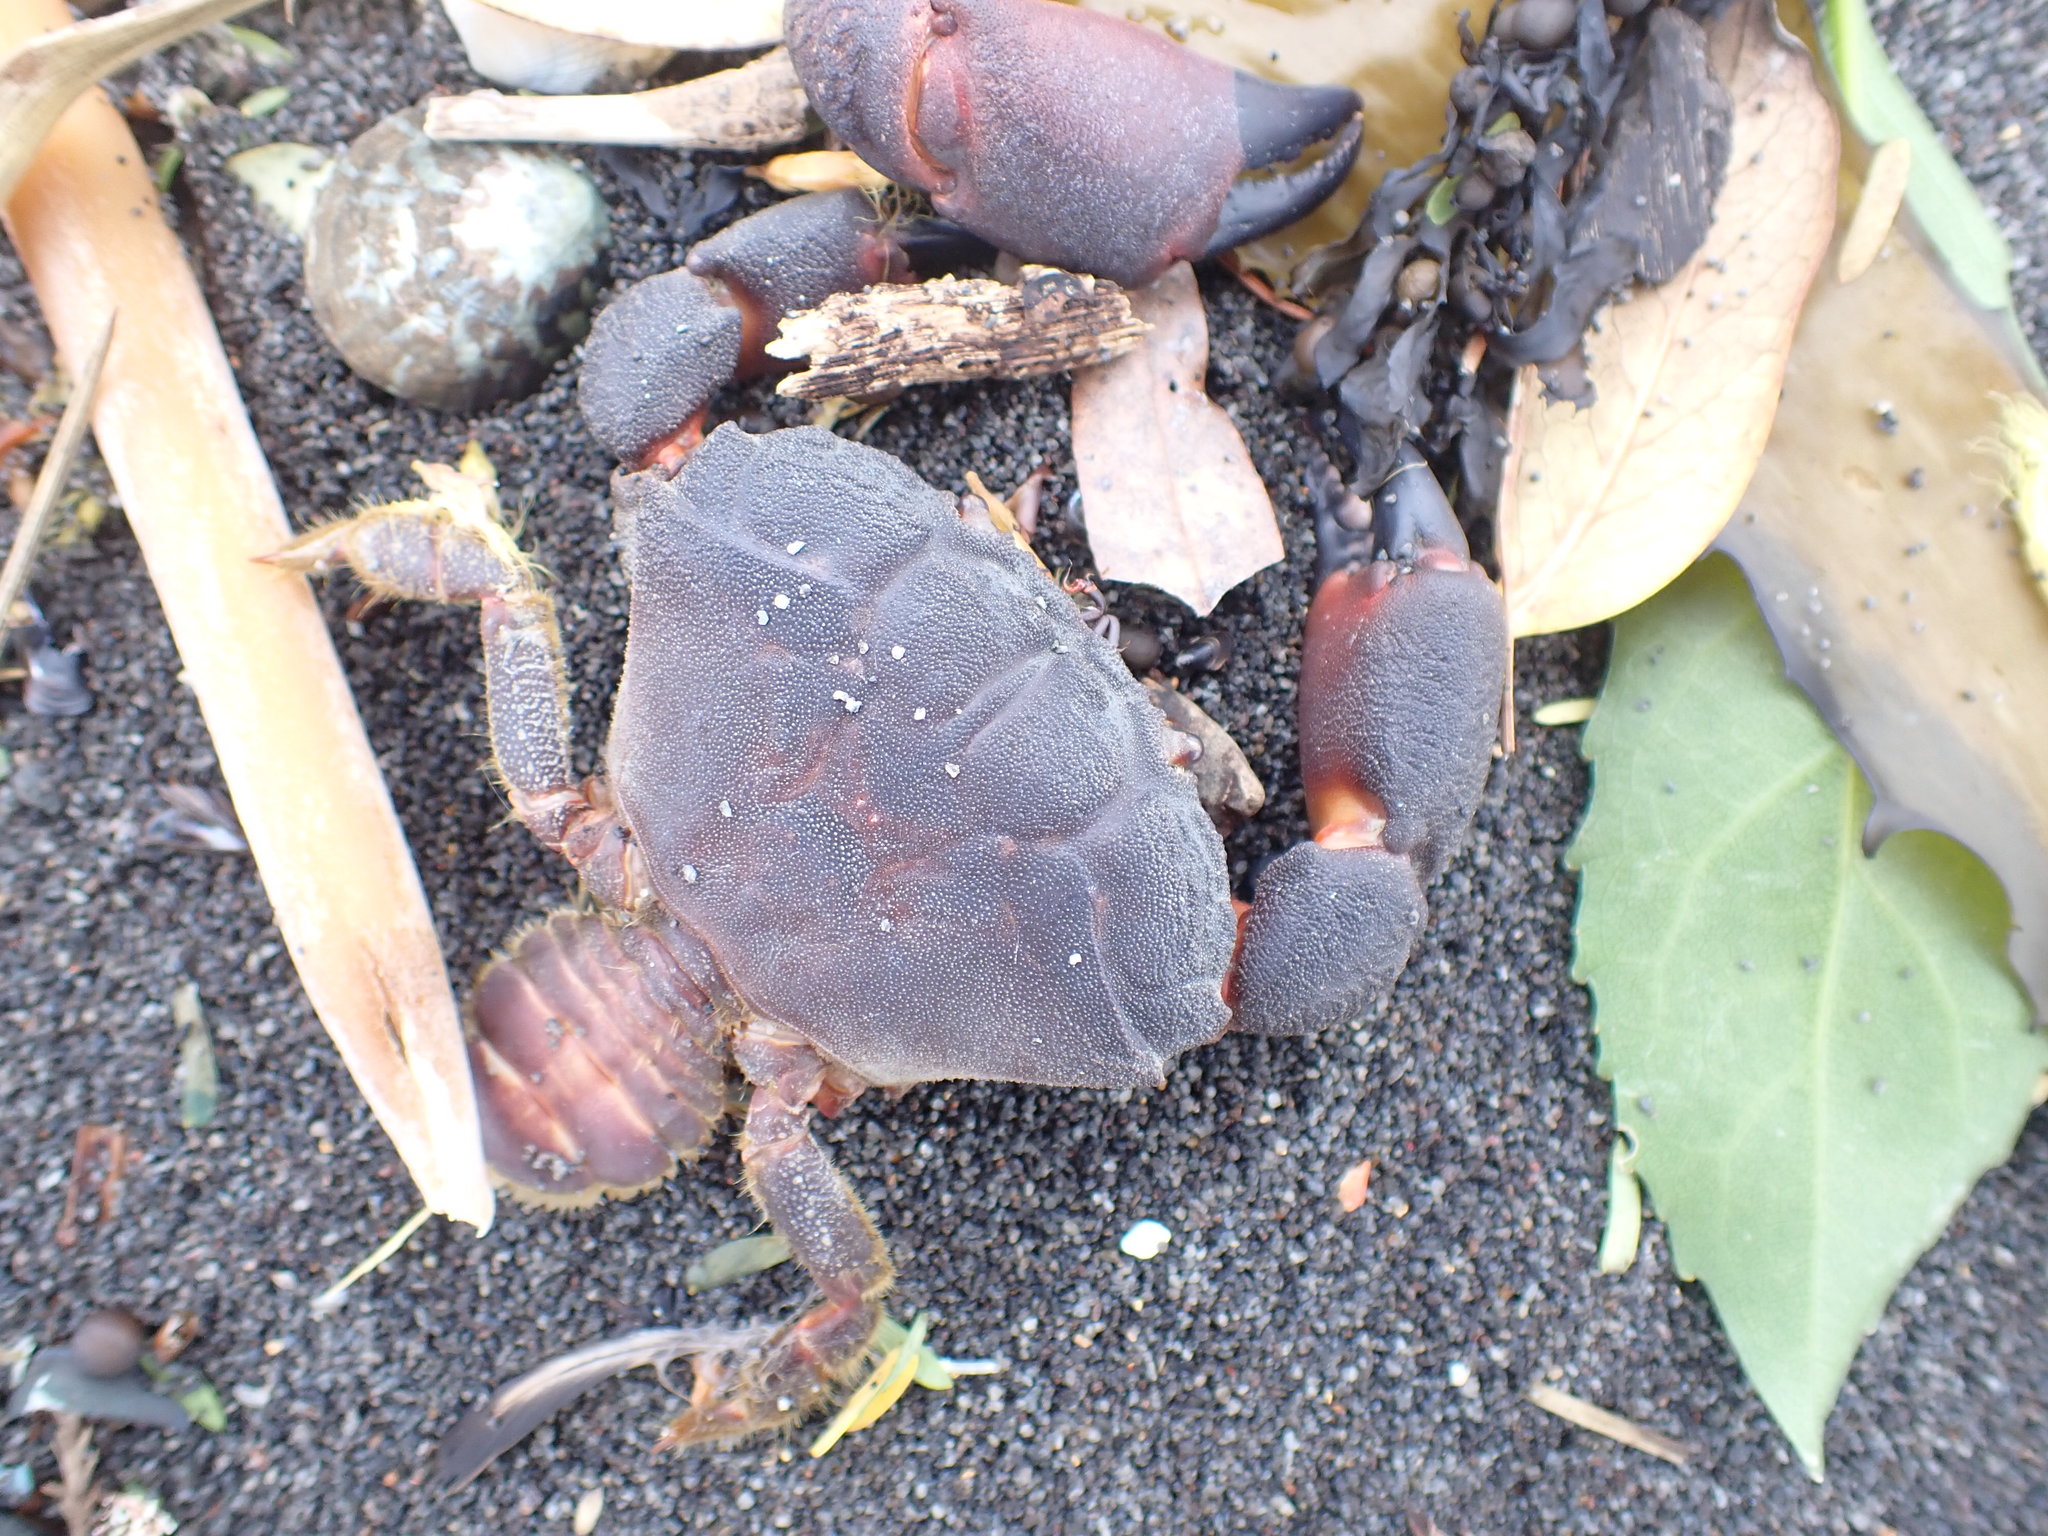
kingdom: Animalia
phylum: Arthropoda
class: Malacostraca
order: Decapoda
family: Oziidae
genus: Ozius
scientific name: Ozius deplanatus
